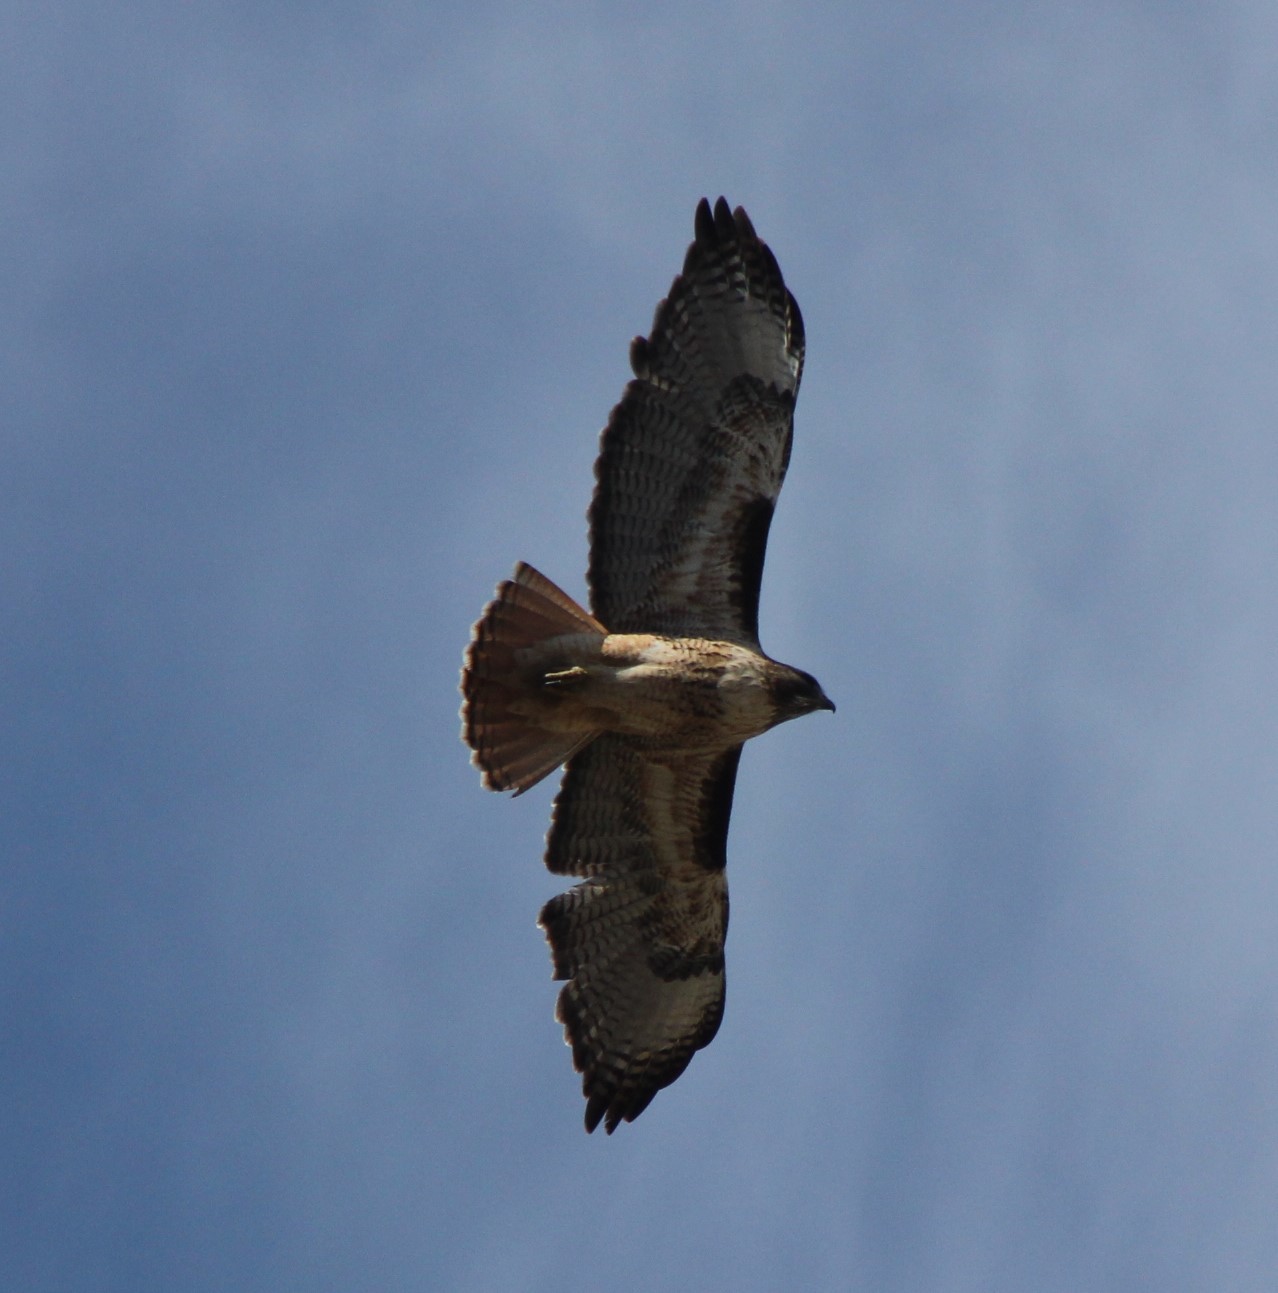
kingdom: Animalia
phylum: Chordata
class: Aves
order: Accipitriformes
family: Accipitridae
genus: Buteo
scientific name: Buteo jamaicensis
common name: Red-tailed hawk
